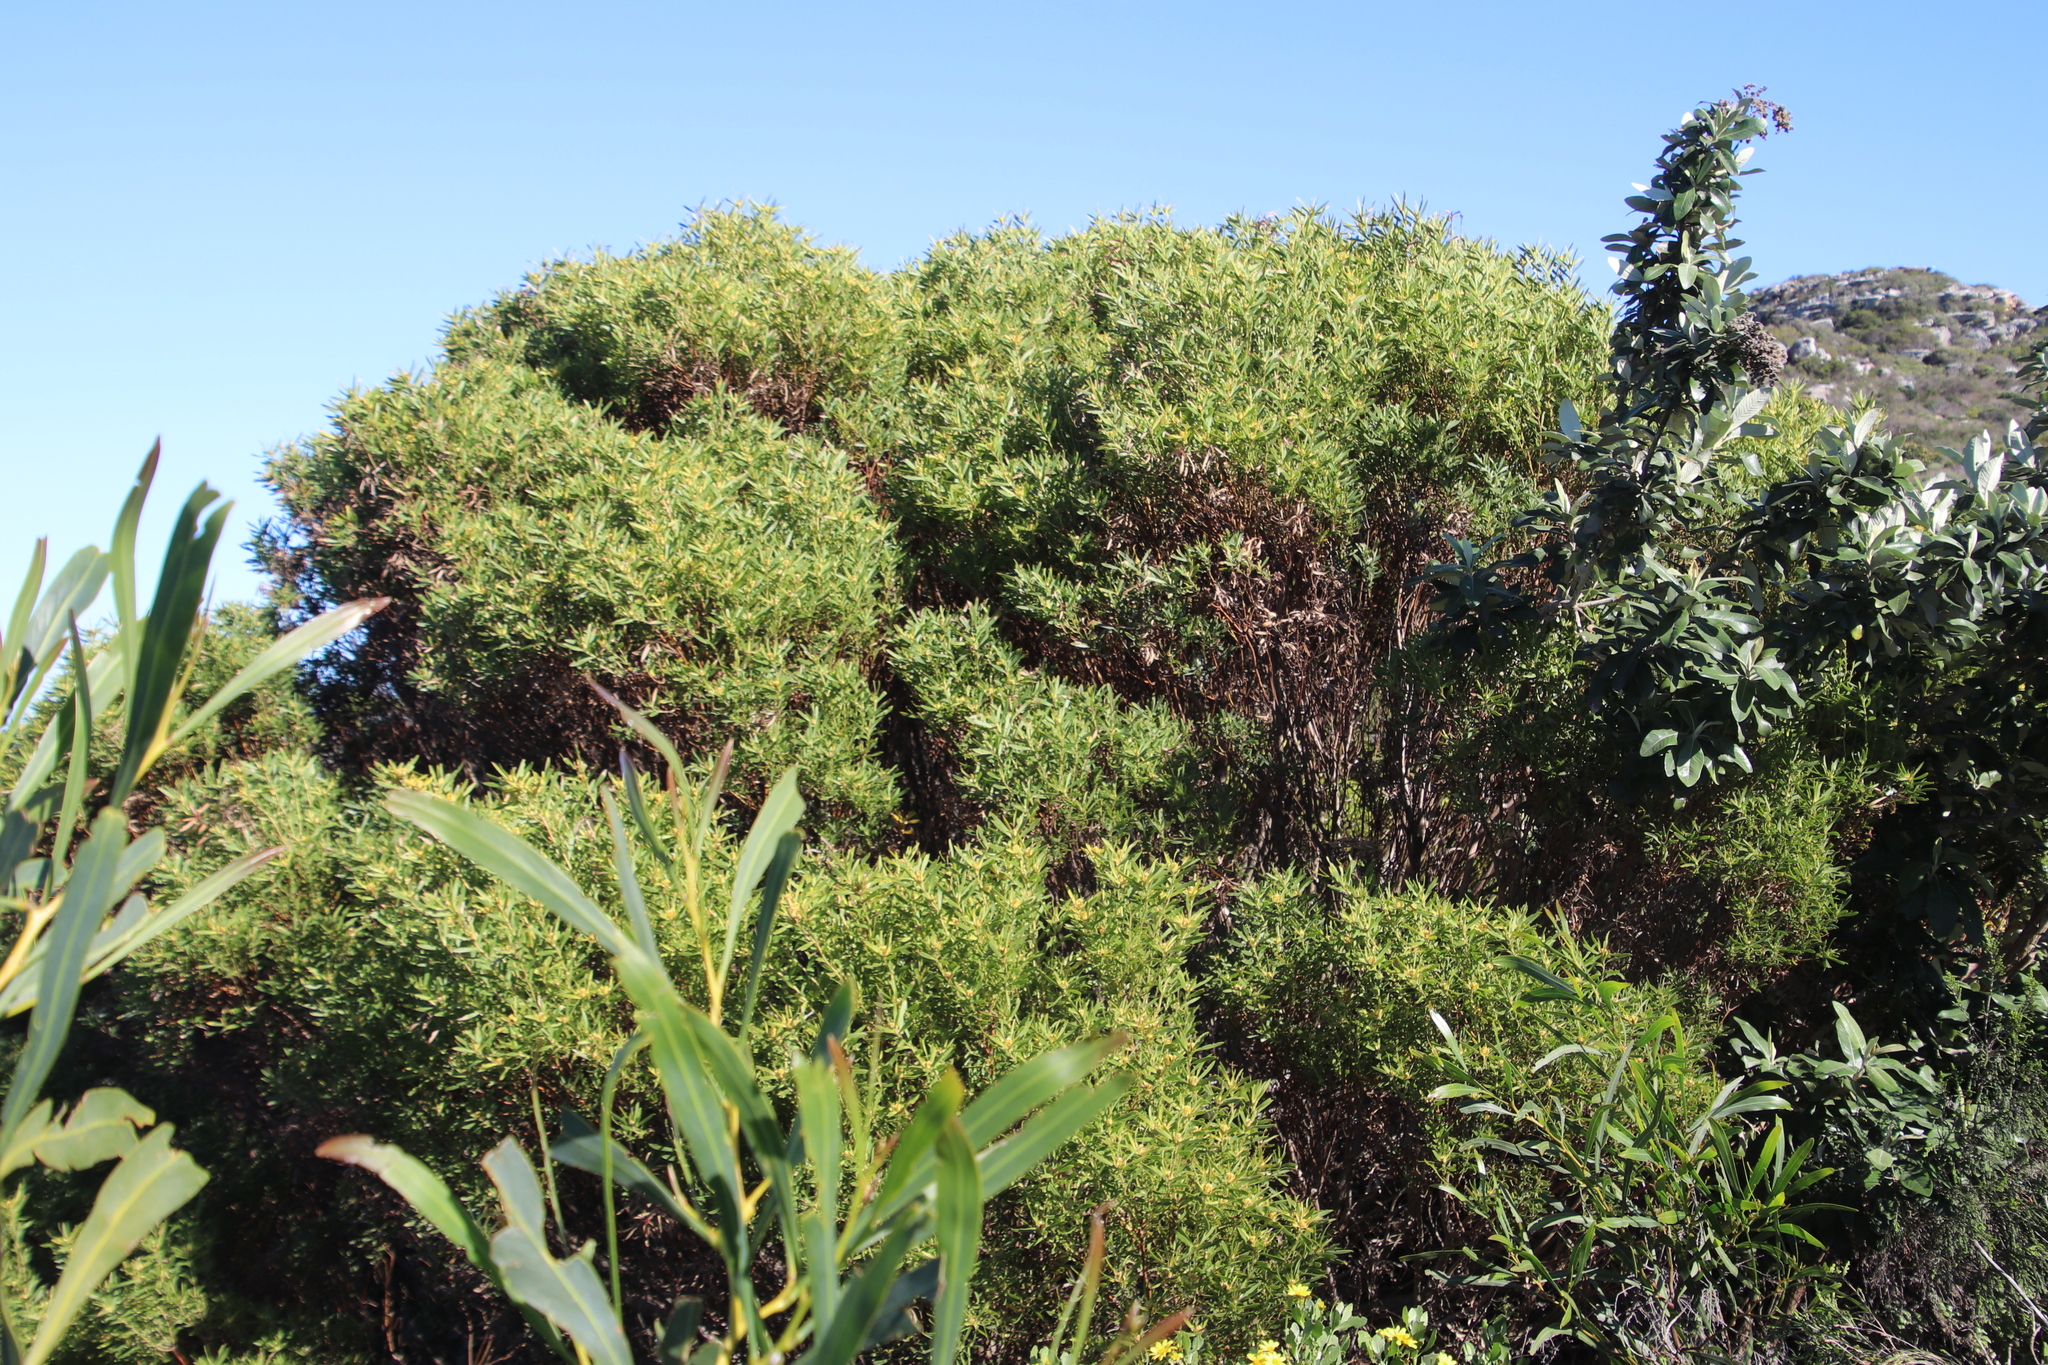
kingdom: Plantae
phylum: Tracheophyta
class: Magnoliopsida
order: Proteales
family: Proteaceae
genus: Leucadendron
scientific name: Leucadendron coniferum
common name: Dune conebush
